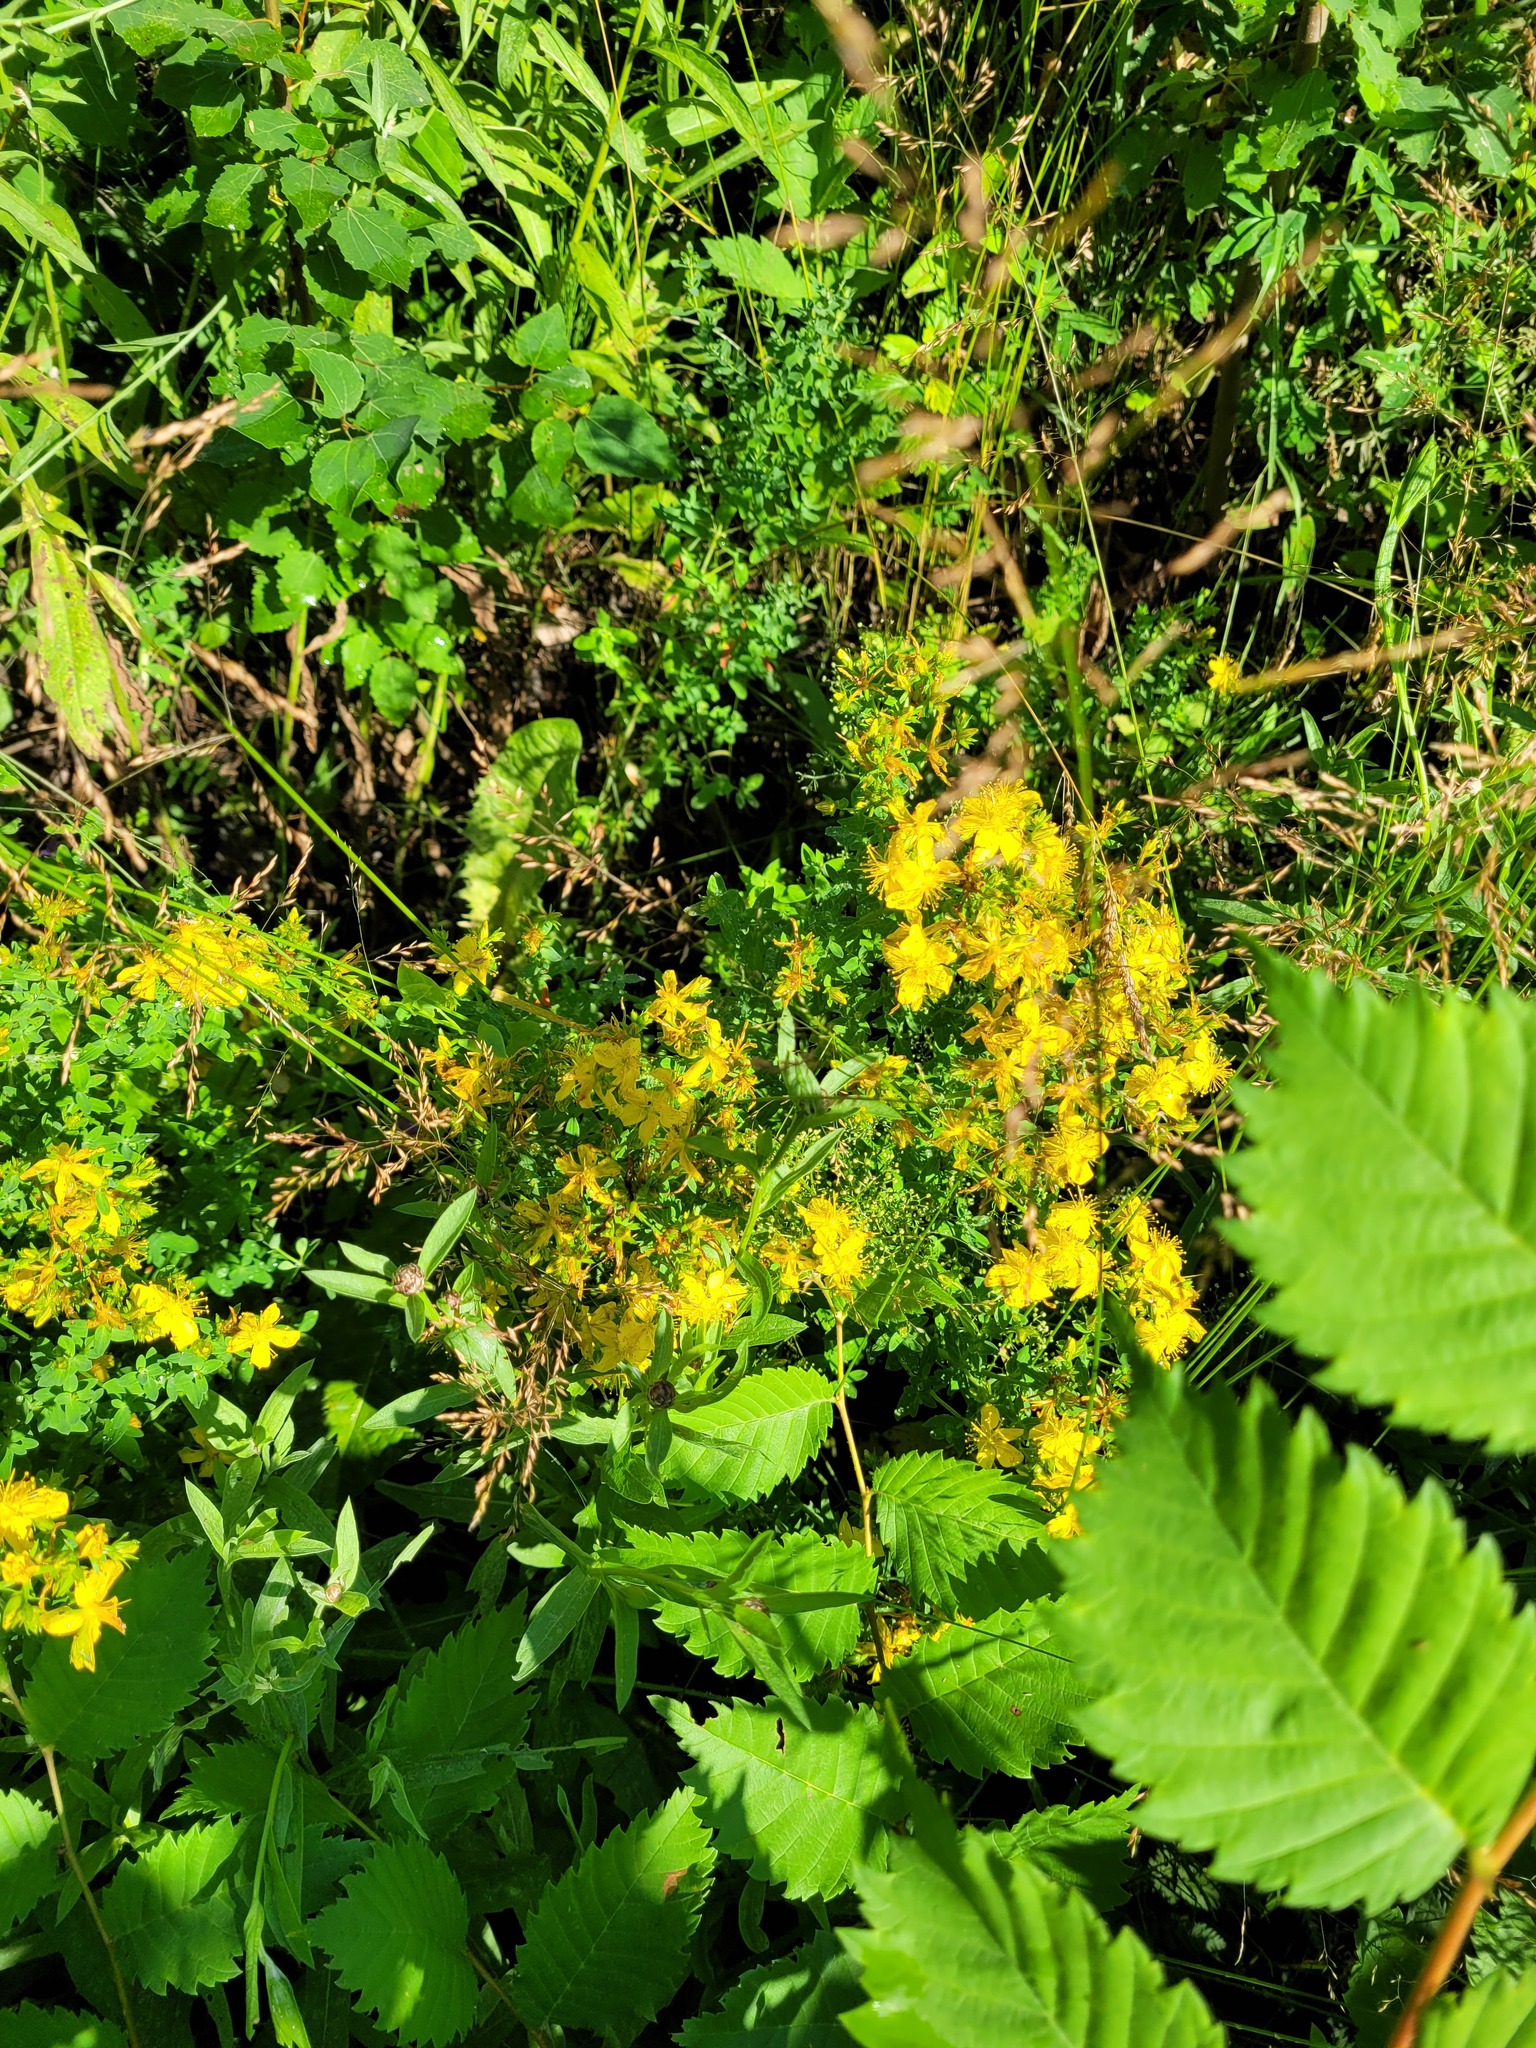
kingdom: Plantae
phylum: Tracheophyta
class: Magnoliopsida
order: Malpighiales
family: Hypericaceae
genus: Hypericum
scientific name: Hypericum perforatum
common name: Common st. johnswort
